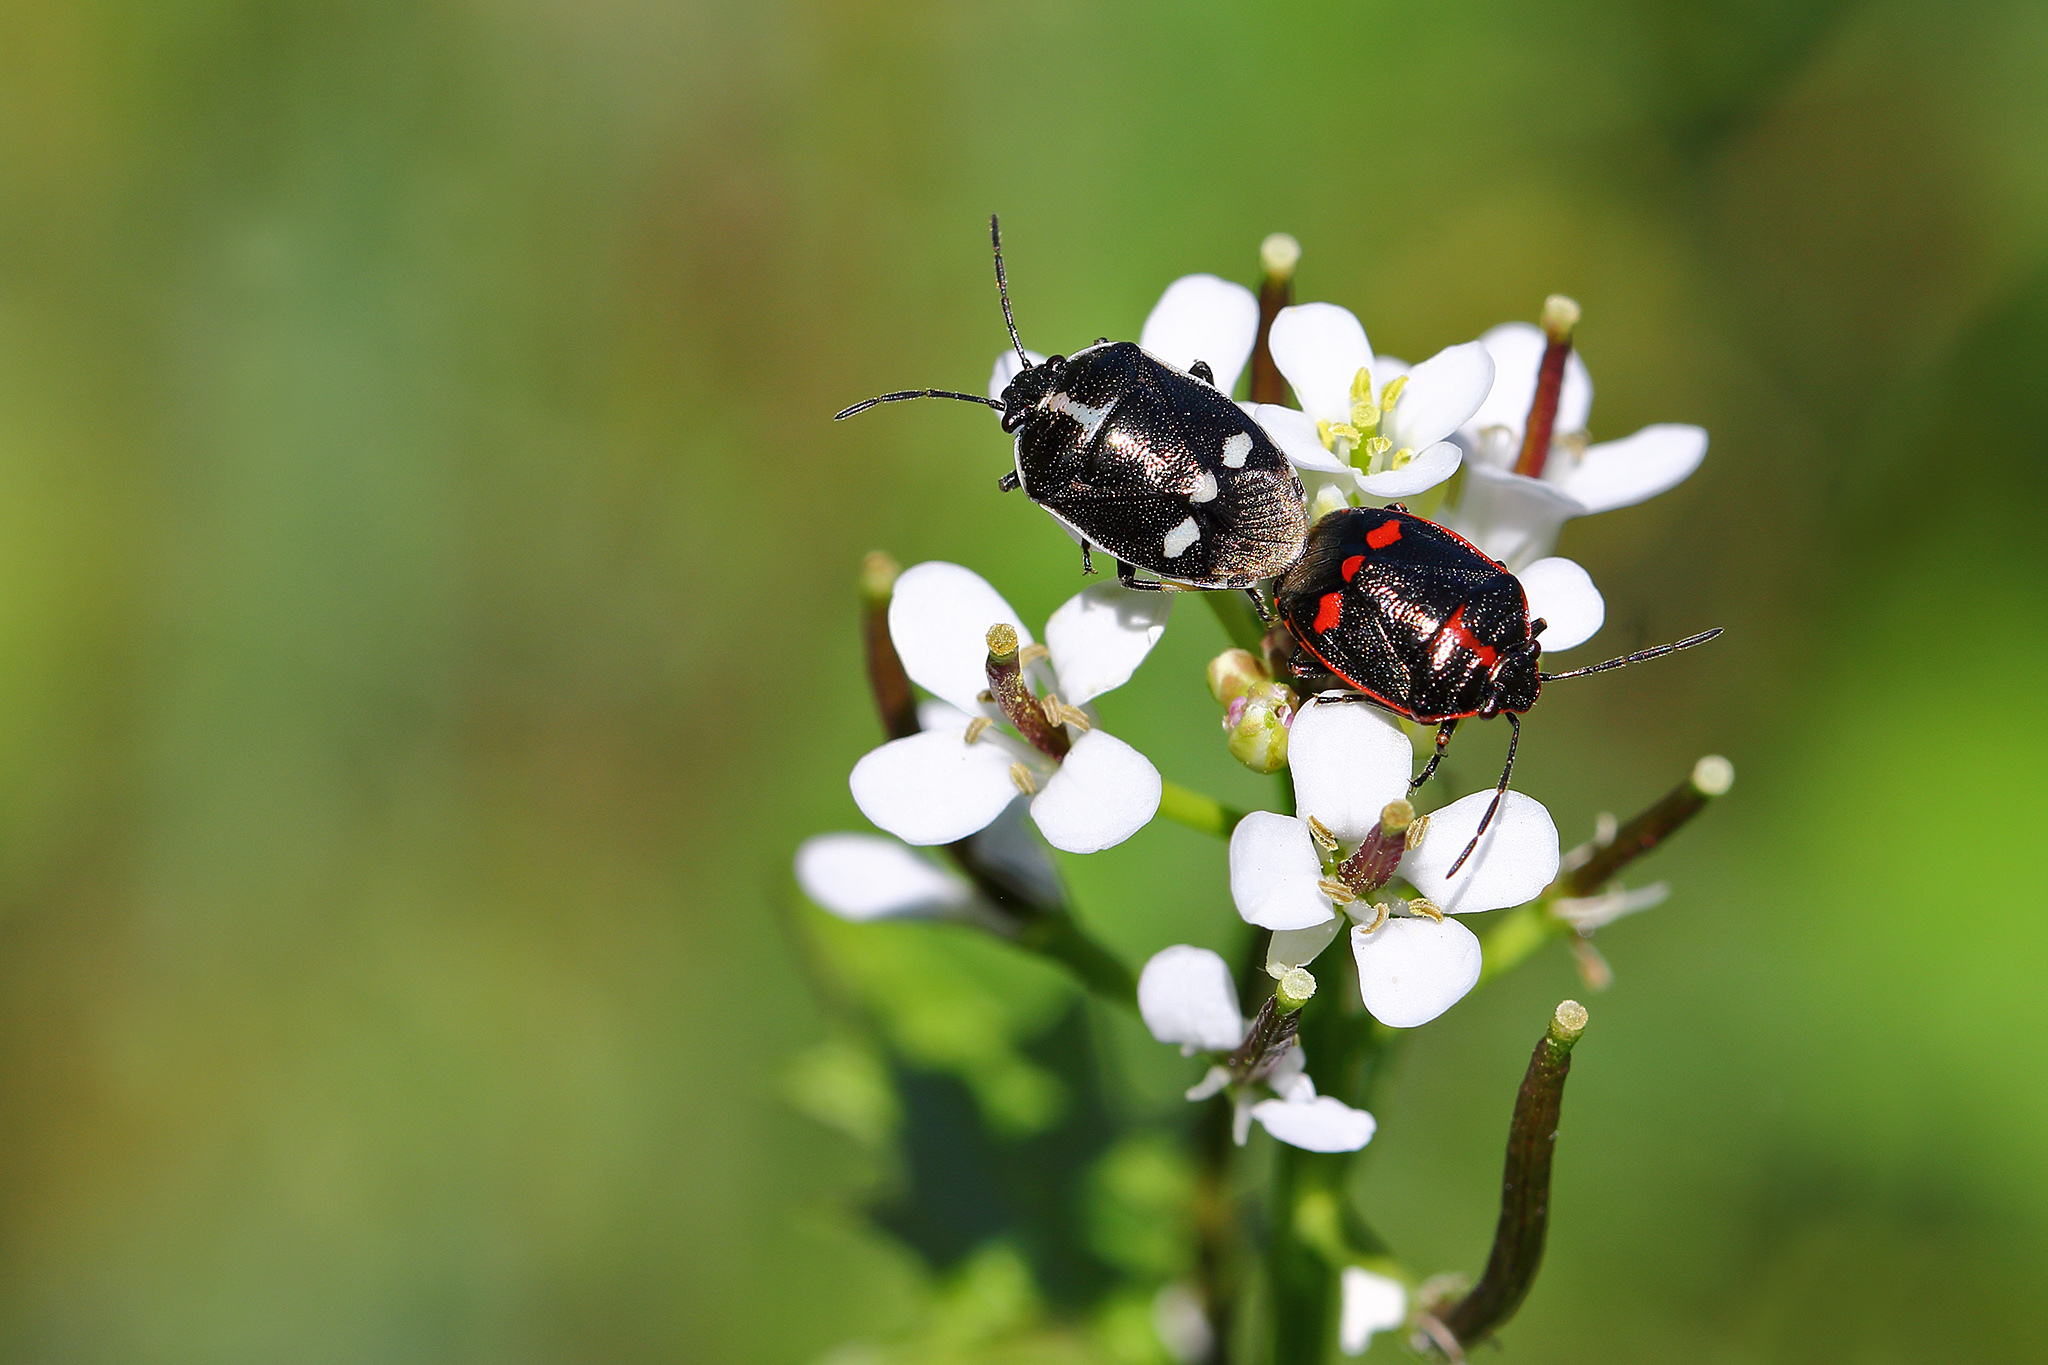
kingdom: Animalia
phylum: Arthropoda
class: Insecta
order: Hemiptera
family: Pentatomidae
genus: Eurydema
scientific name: Eurydema oleracea
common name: Cabbage bug
